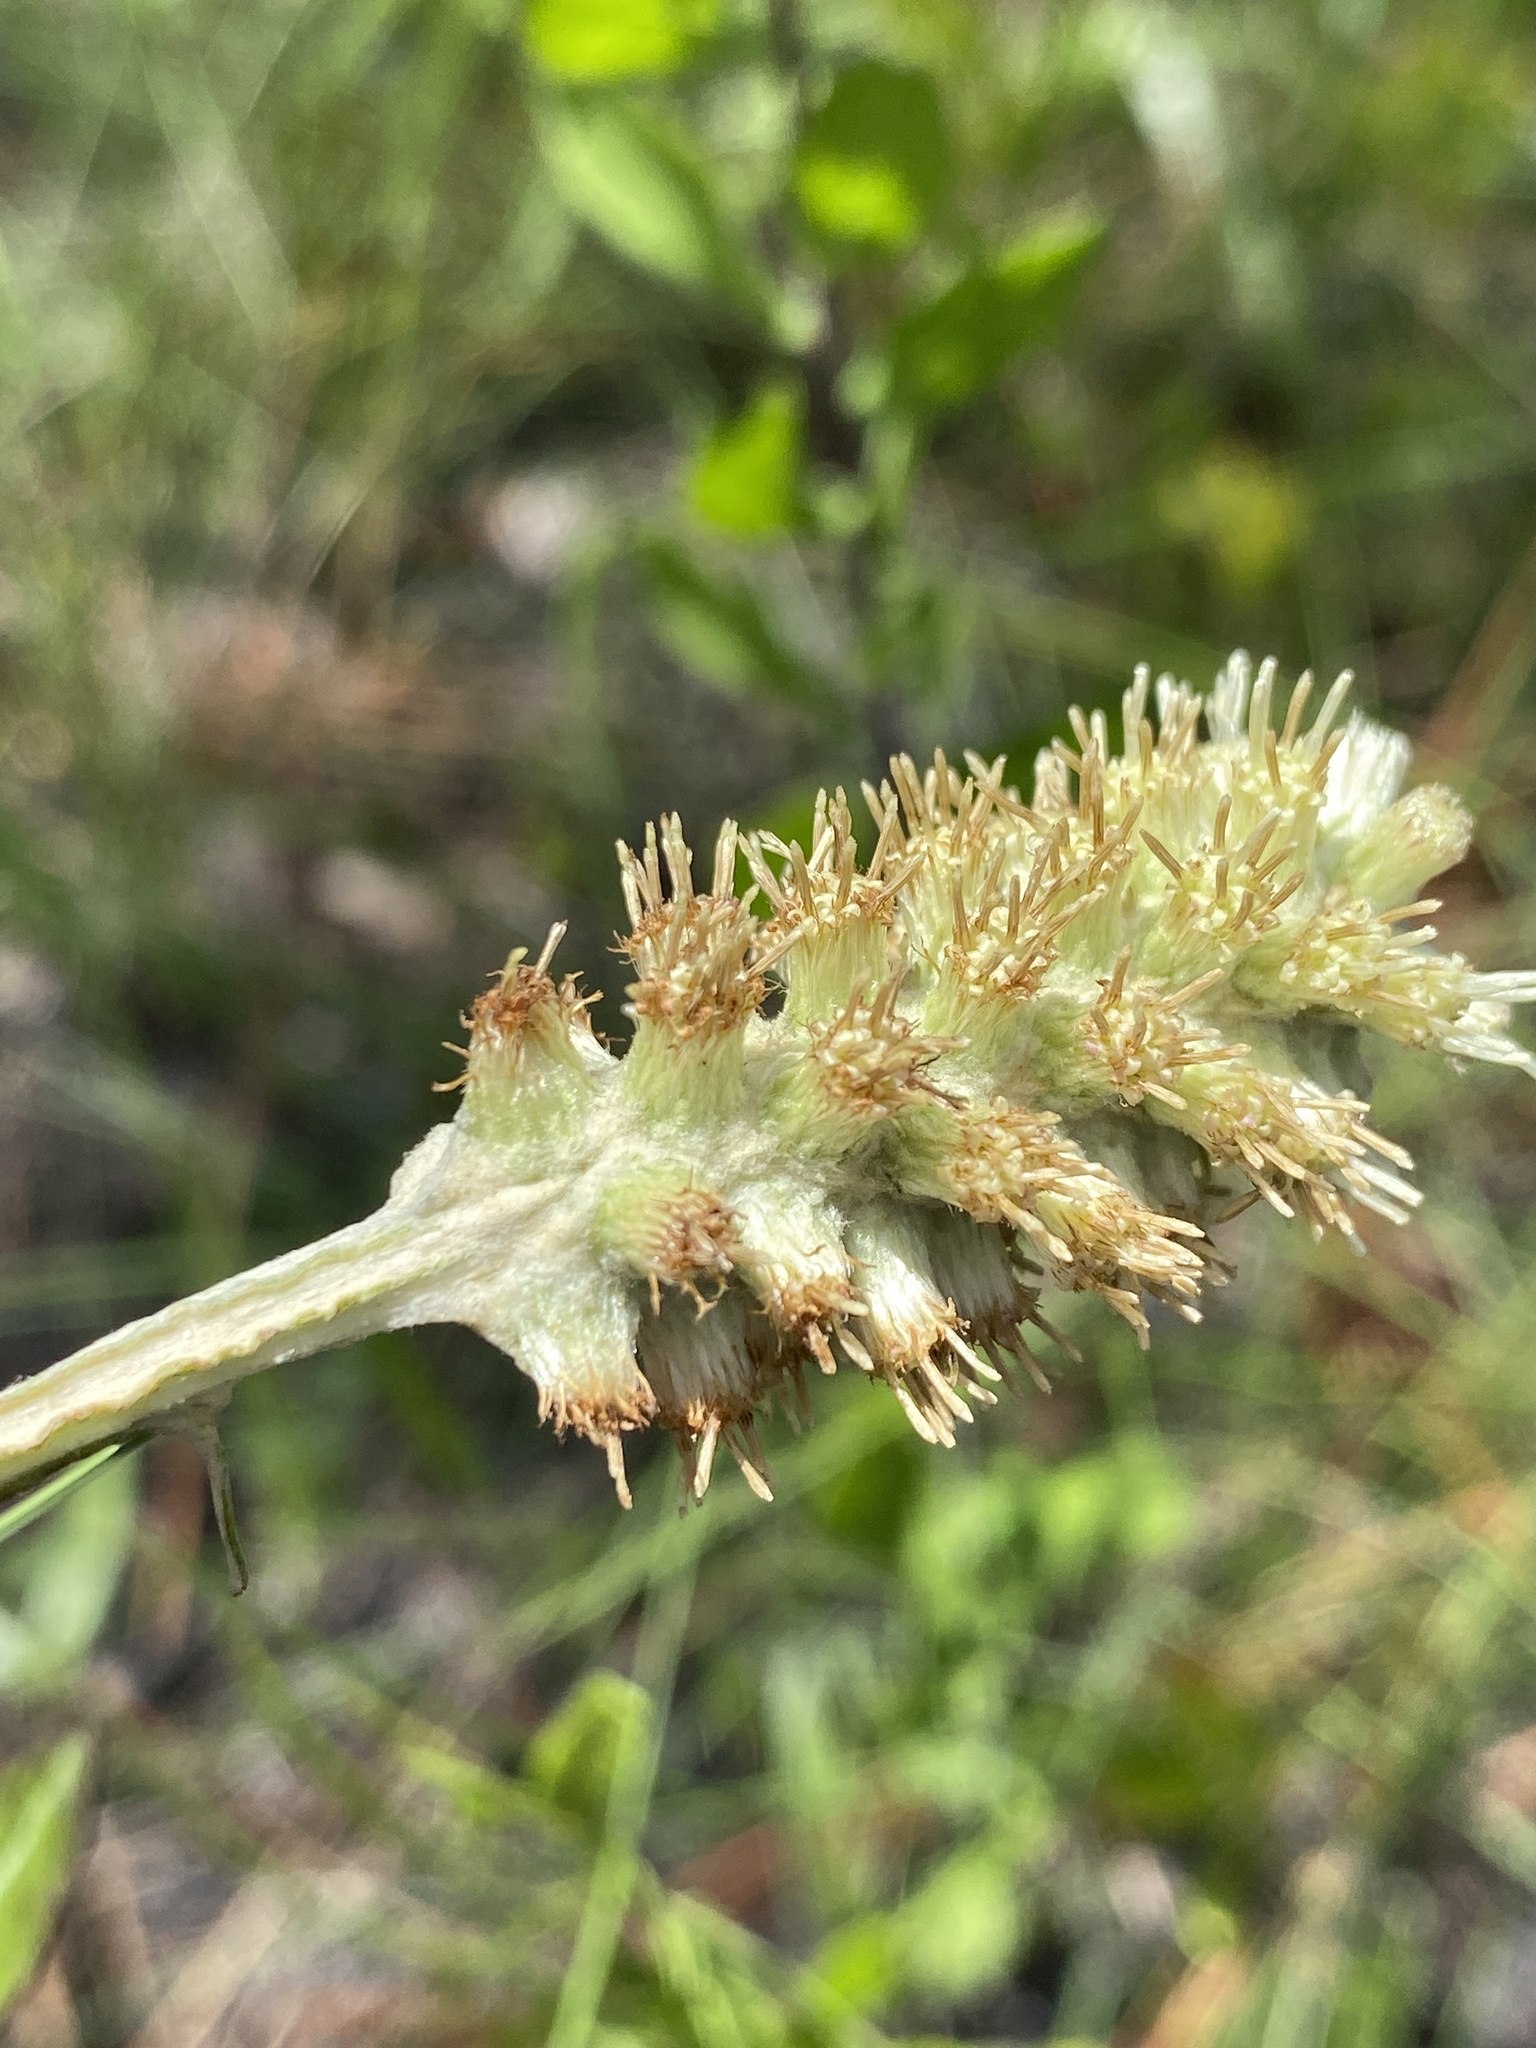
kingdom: Plantae
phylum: Tracheophyta
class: Magnoliopsida
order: Asterales
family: Asteraceae
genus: Pterocaulon
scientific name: Pterocaulon pycnostachyum
